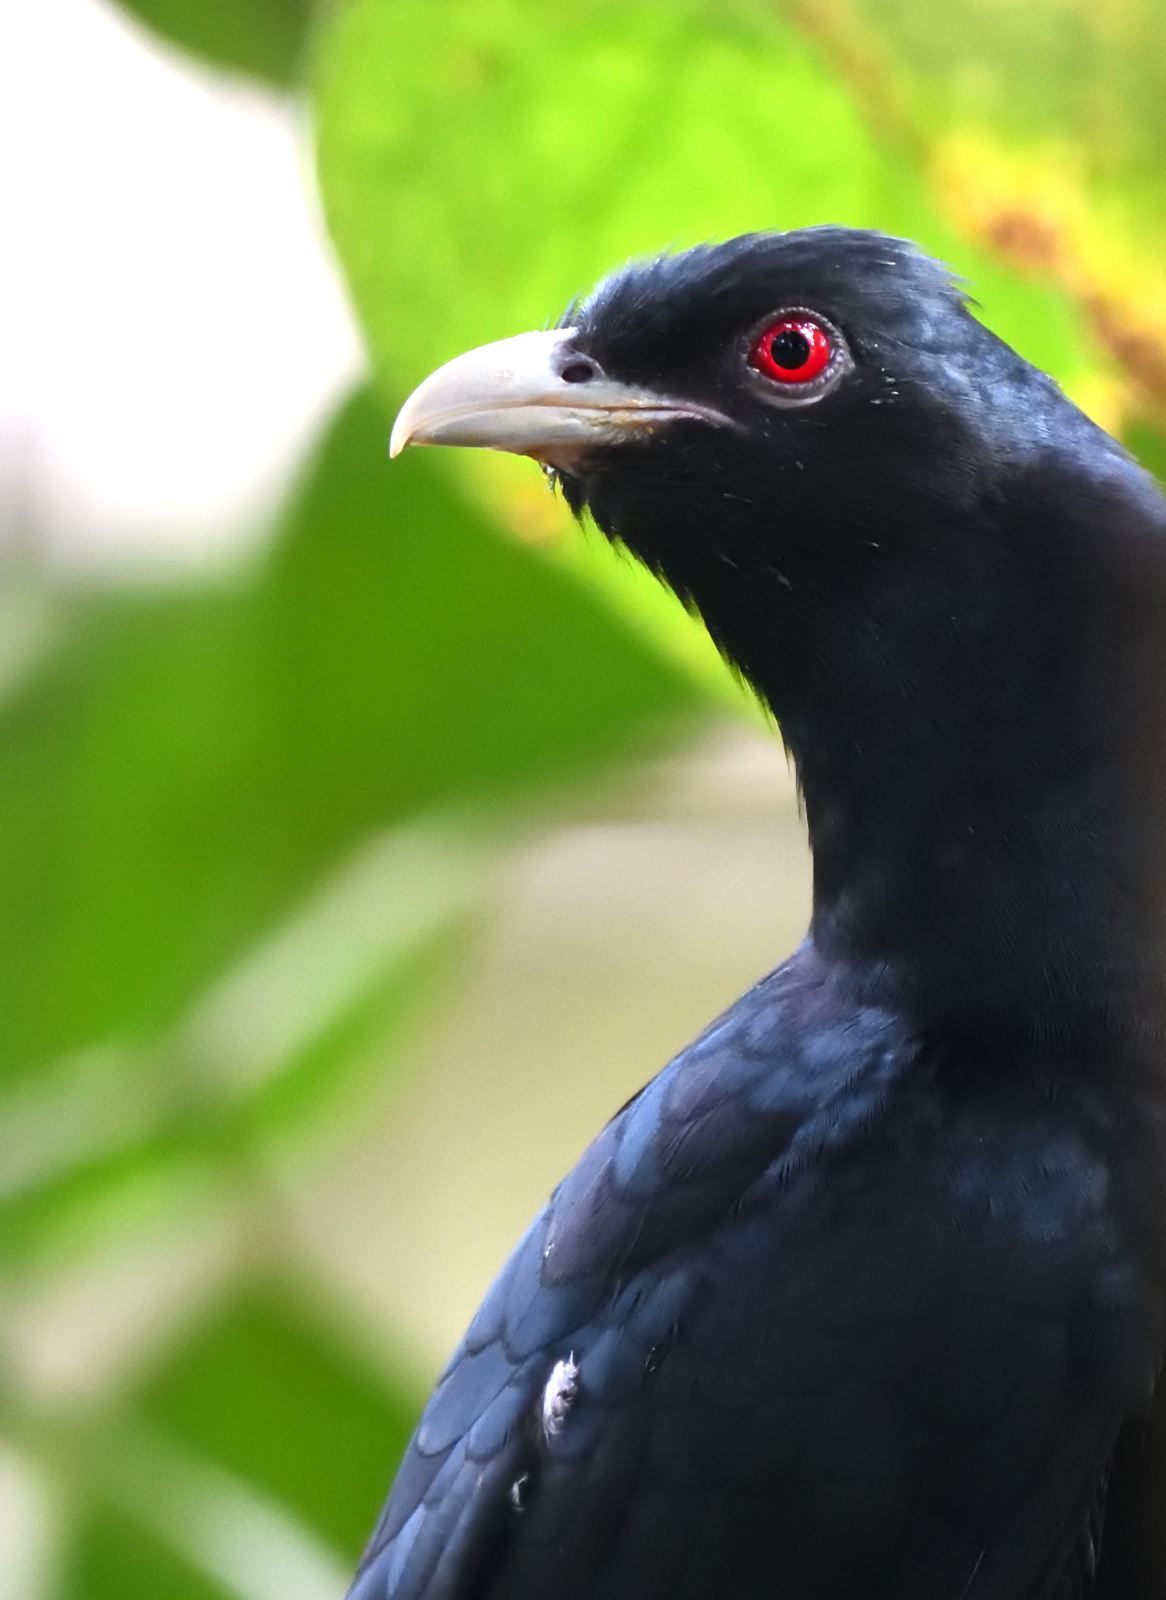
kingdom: Animalia
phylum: Chordata
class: Aves
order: Cuculiformes
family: Cuculidae
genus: Eudynamys
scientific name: Eudynamys scolopaceus
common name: Asian koel
